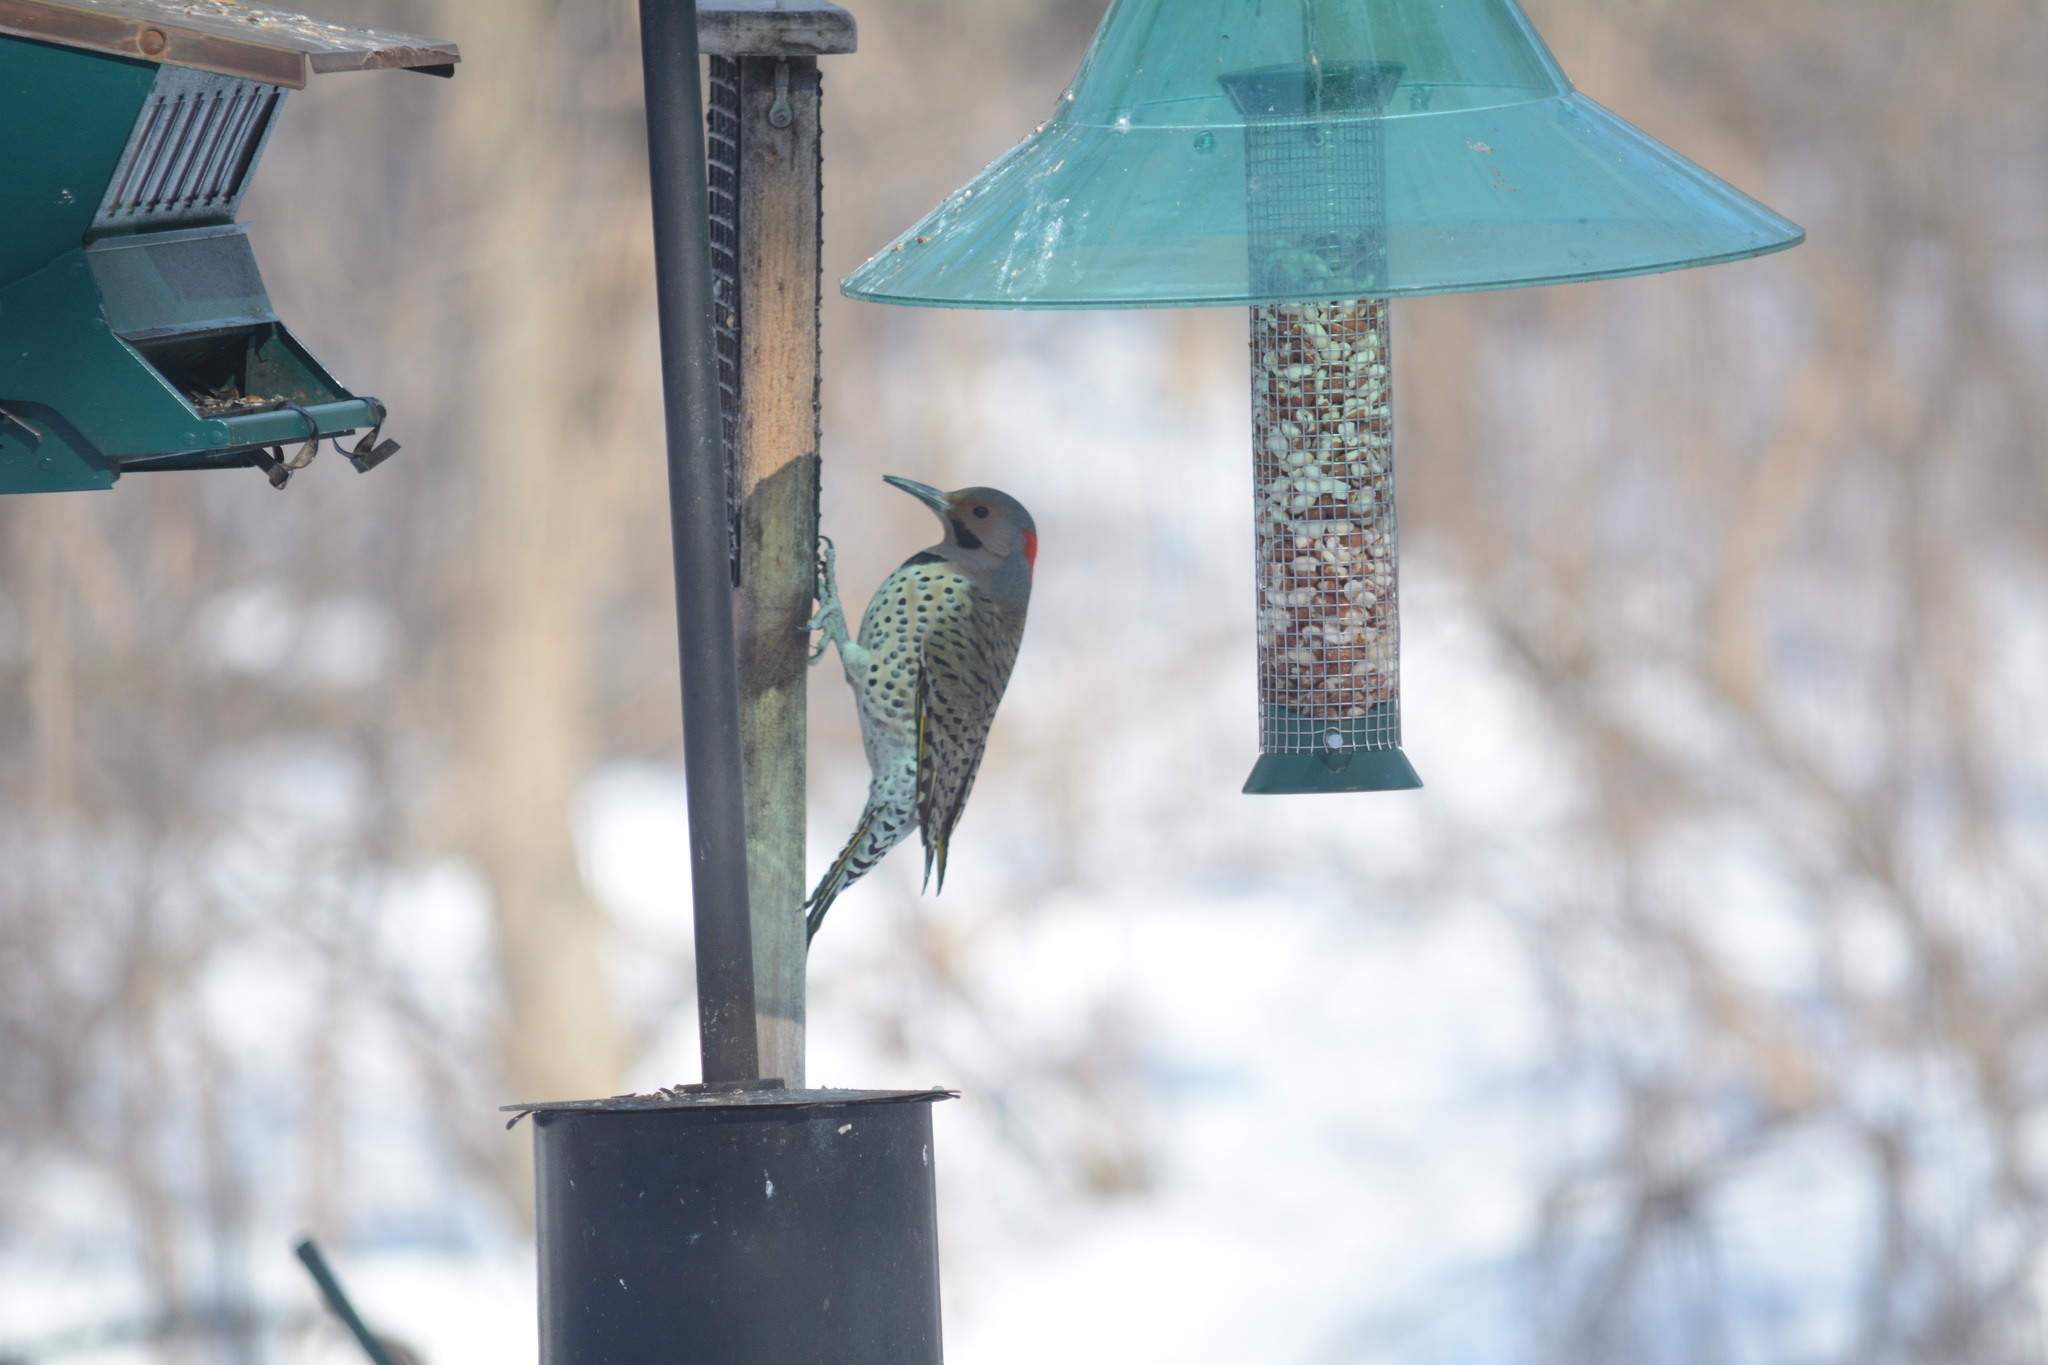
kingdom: Animalia
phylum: Chordata
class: Aves
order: Piciformes
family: Picidae
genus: Colaptes
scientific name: Colaptes auratus
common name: Northern flicker
